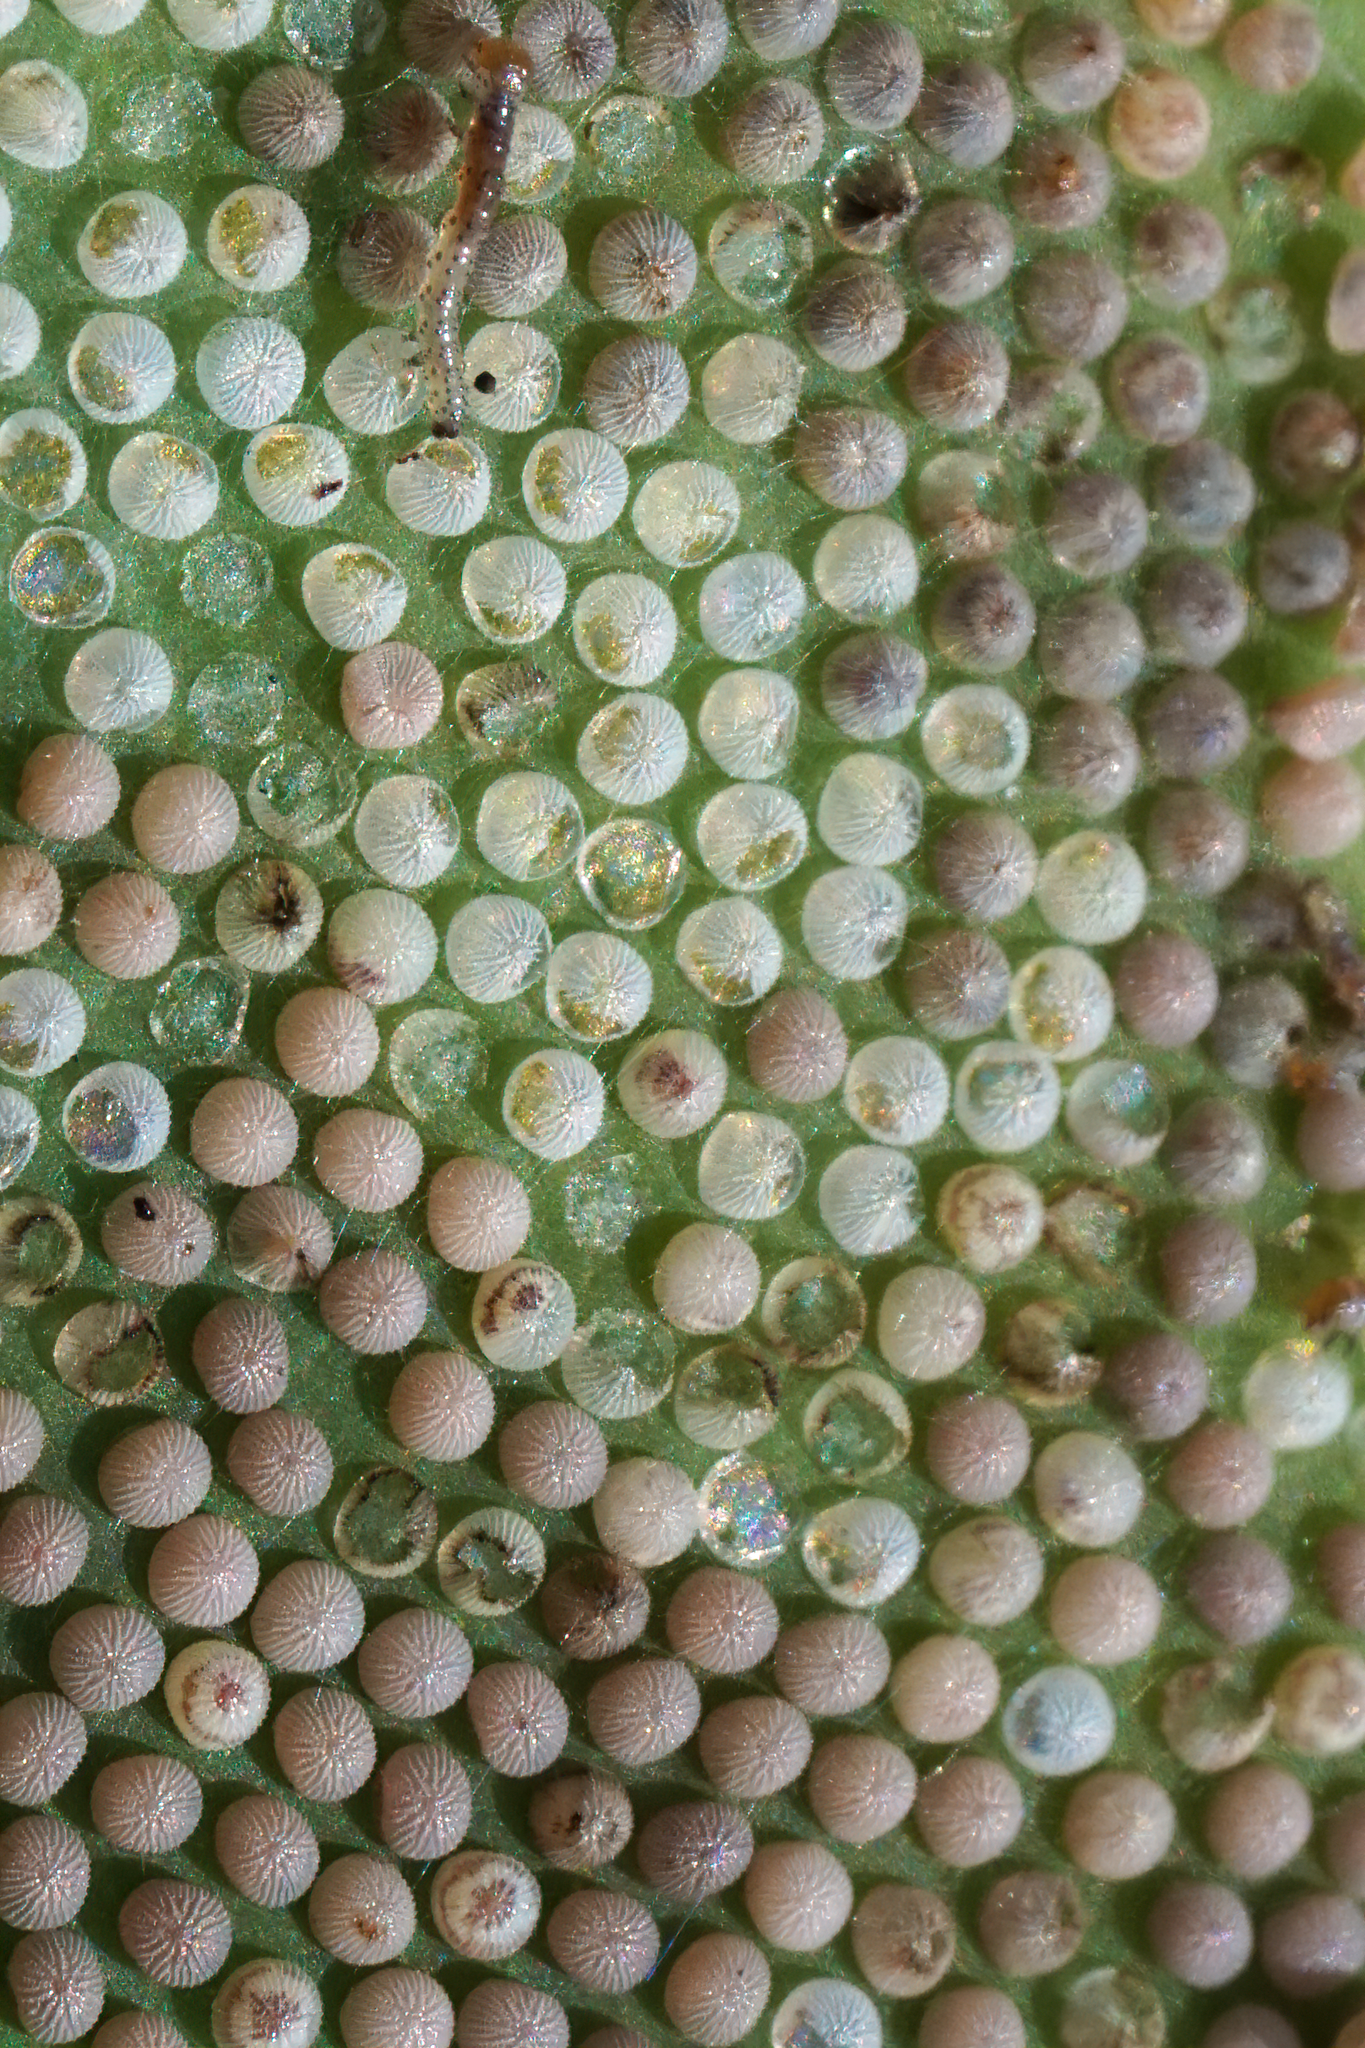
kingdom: Animalia
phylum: Arthropoda
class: Insecta
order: Lepidoptera
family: Crambidae
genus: Epicorsia
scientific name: Epicorsia oedipodalis
